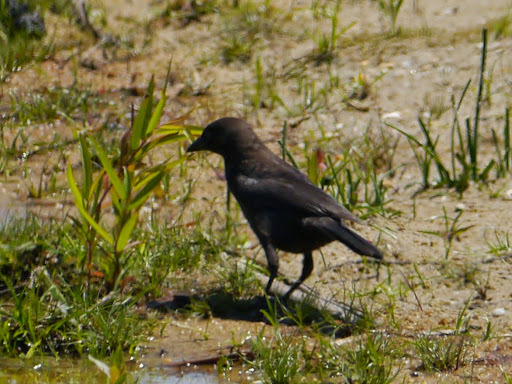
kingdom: Animalia
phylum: Chordata
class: Aves
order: Passeriformes
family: Icteridae
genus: Molothrus
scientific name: Molothrus ater
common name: Brown-headed cowbird
